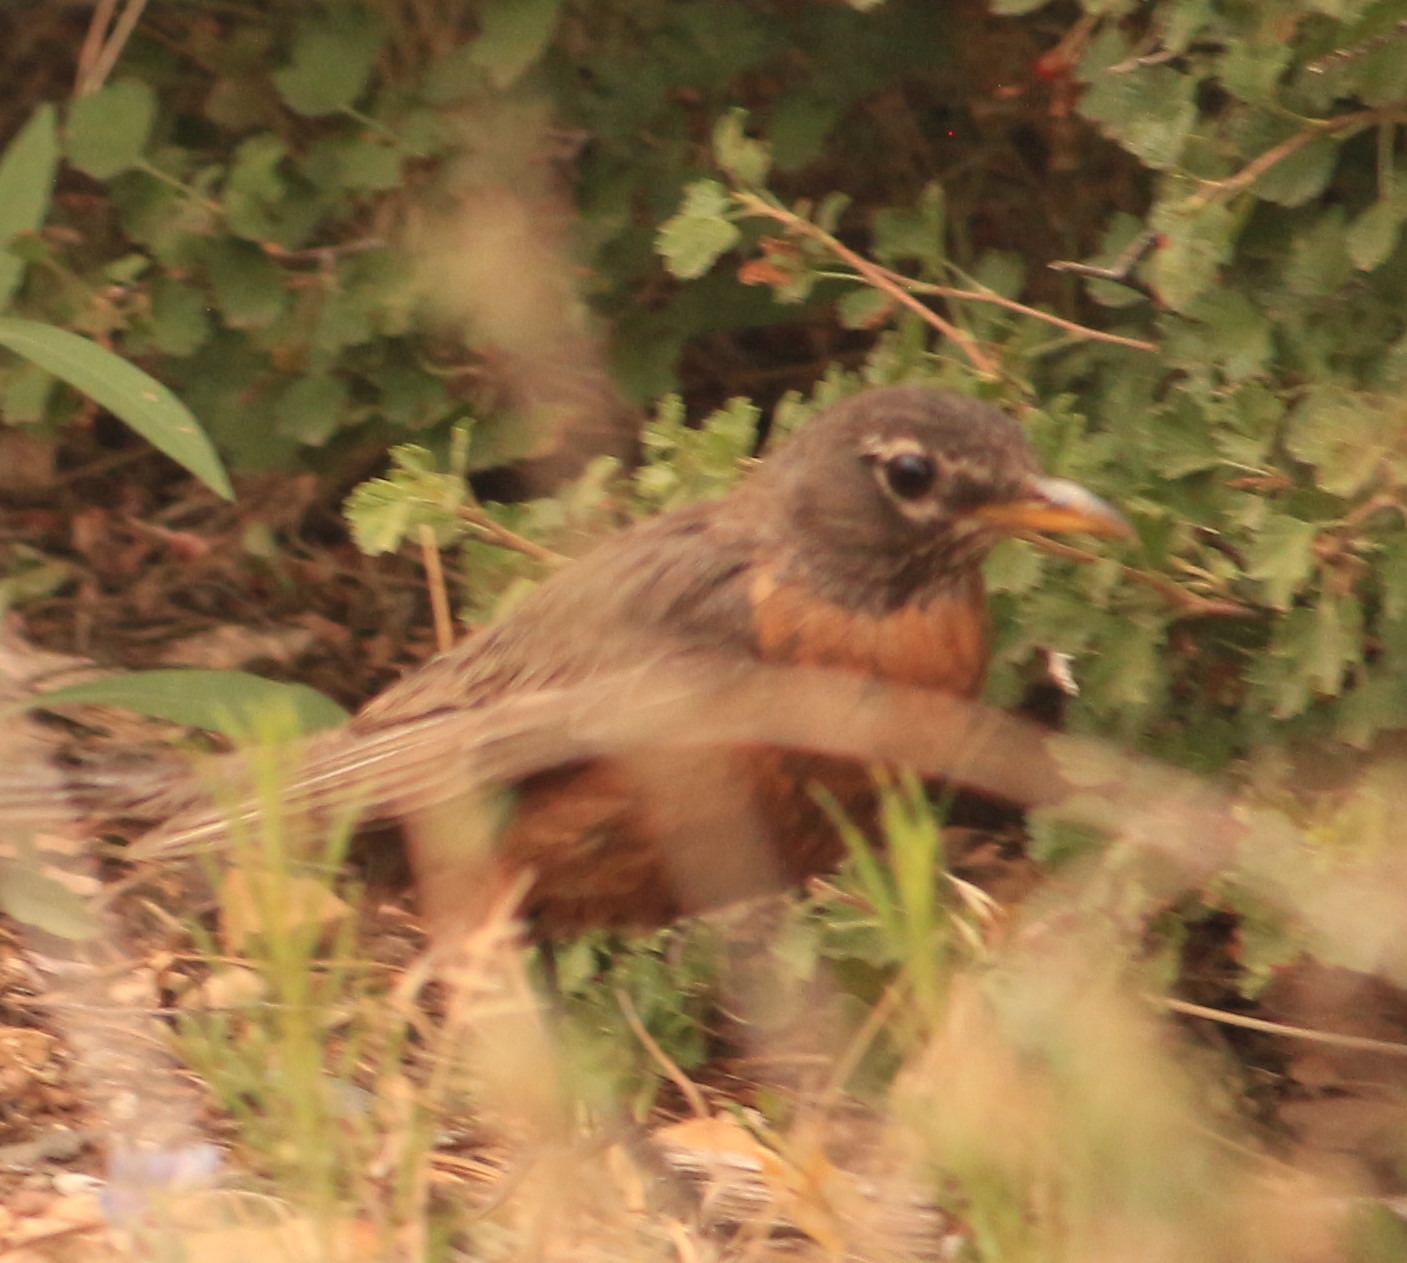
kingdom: Animalia
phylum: Chordata
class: Aves
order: Passeriformes
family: Turdidae
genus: Turdus
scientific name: Turdus migratorius
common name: American robin
